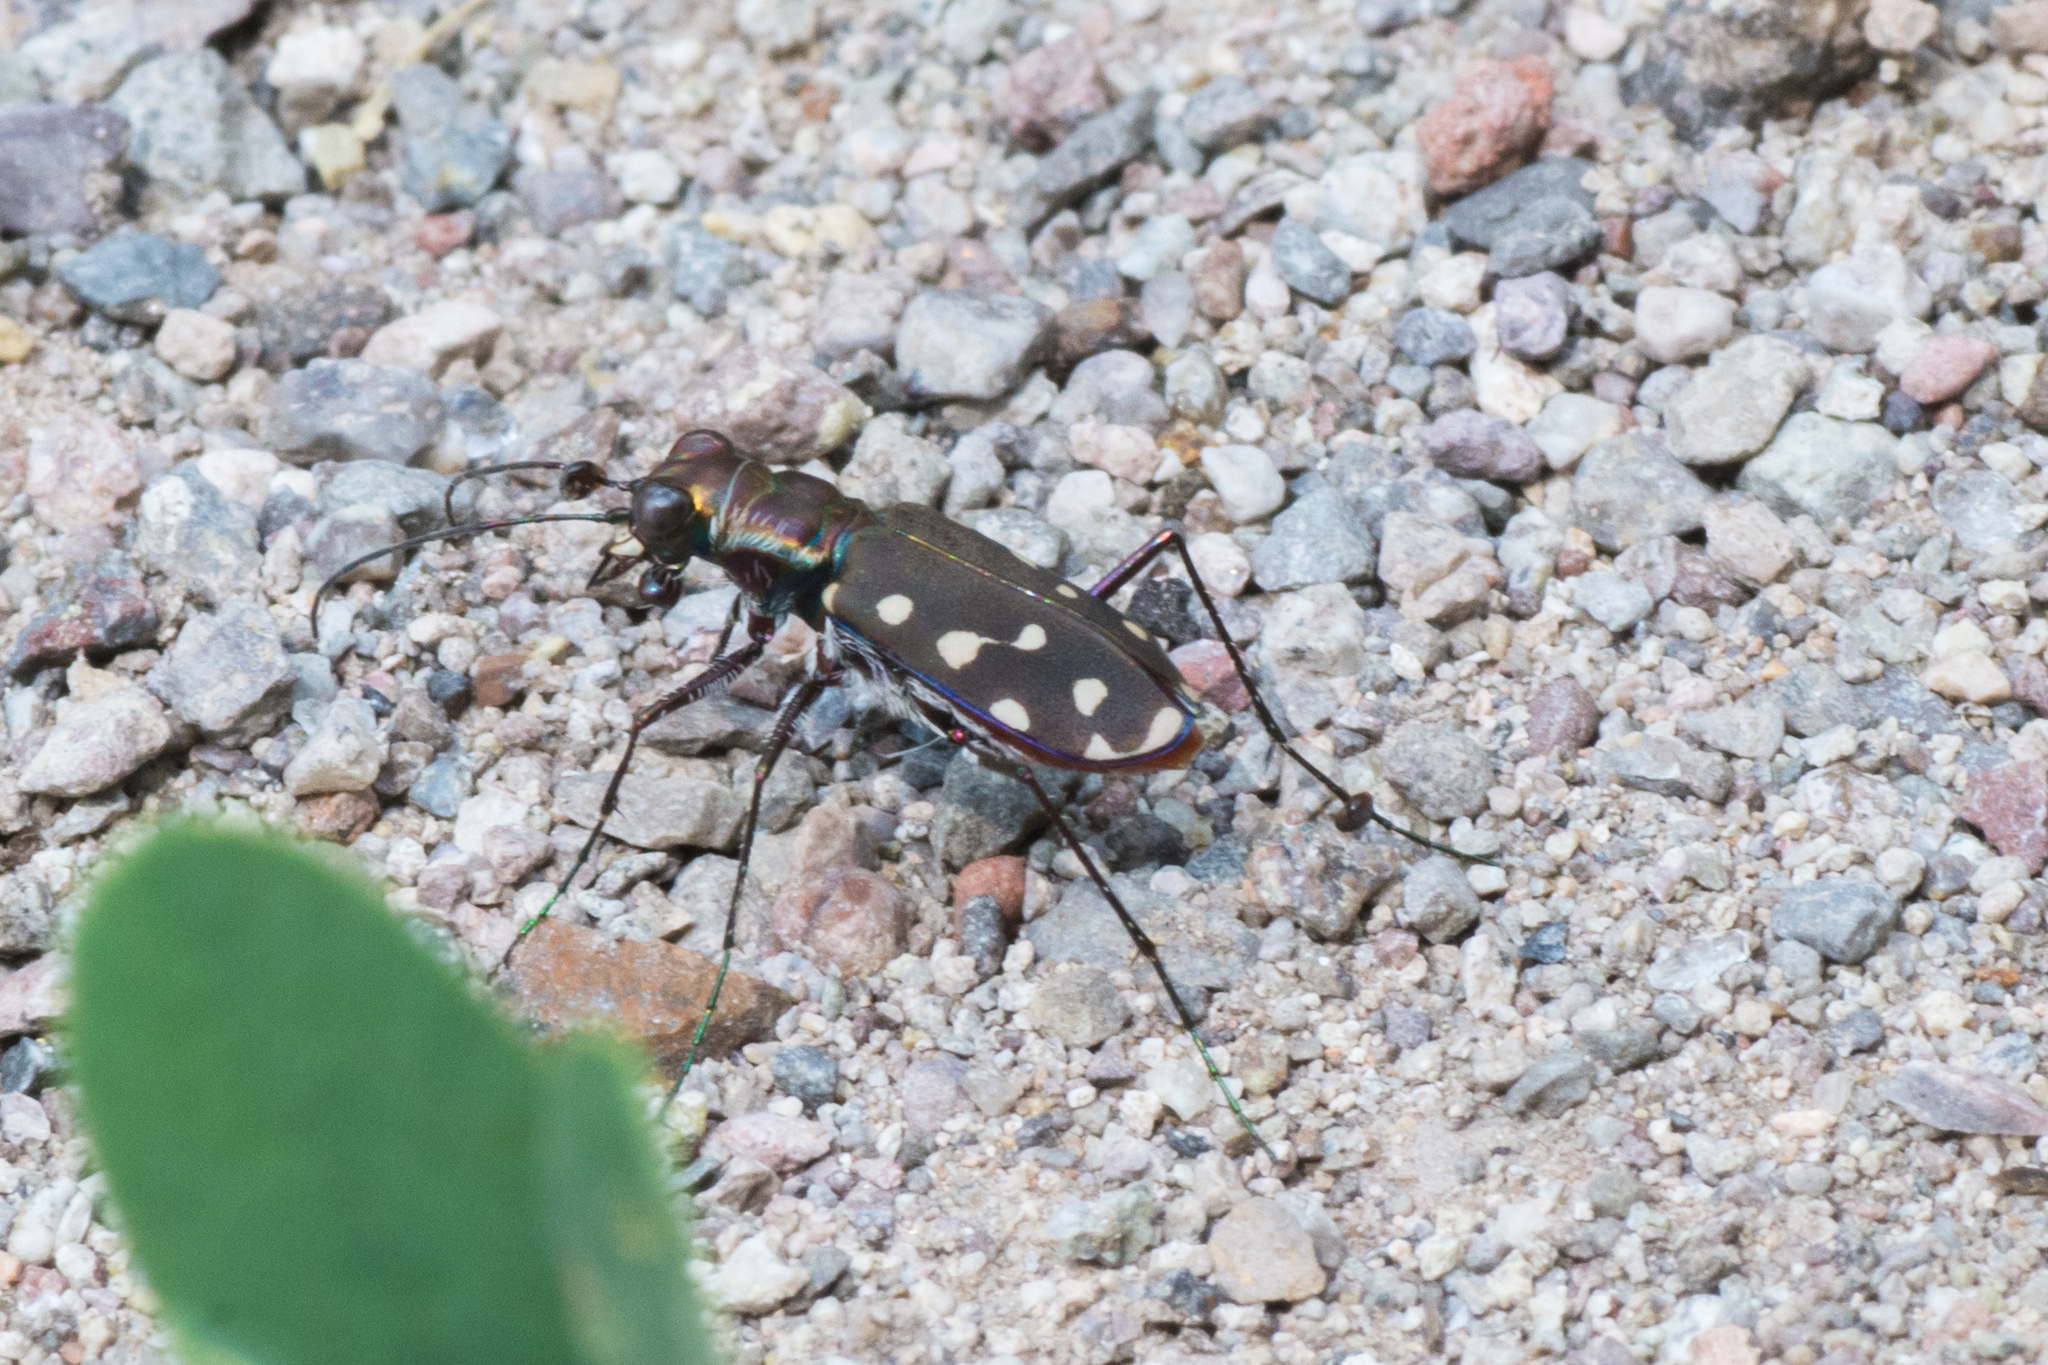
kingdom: Animalia
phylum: Arthropoda
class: Insecta
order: Coleoptera
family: Carabidae
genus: Cicindela
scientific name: Cicindela sedecimpunctata
